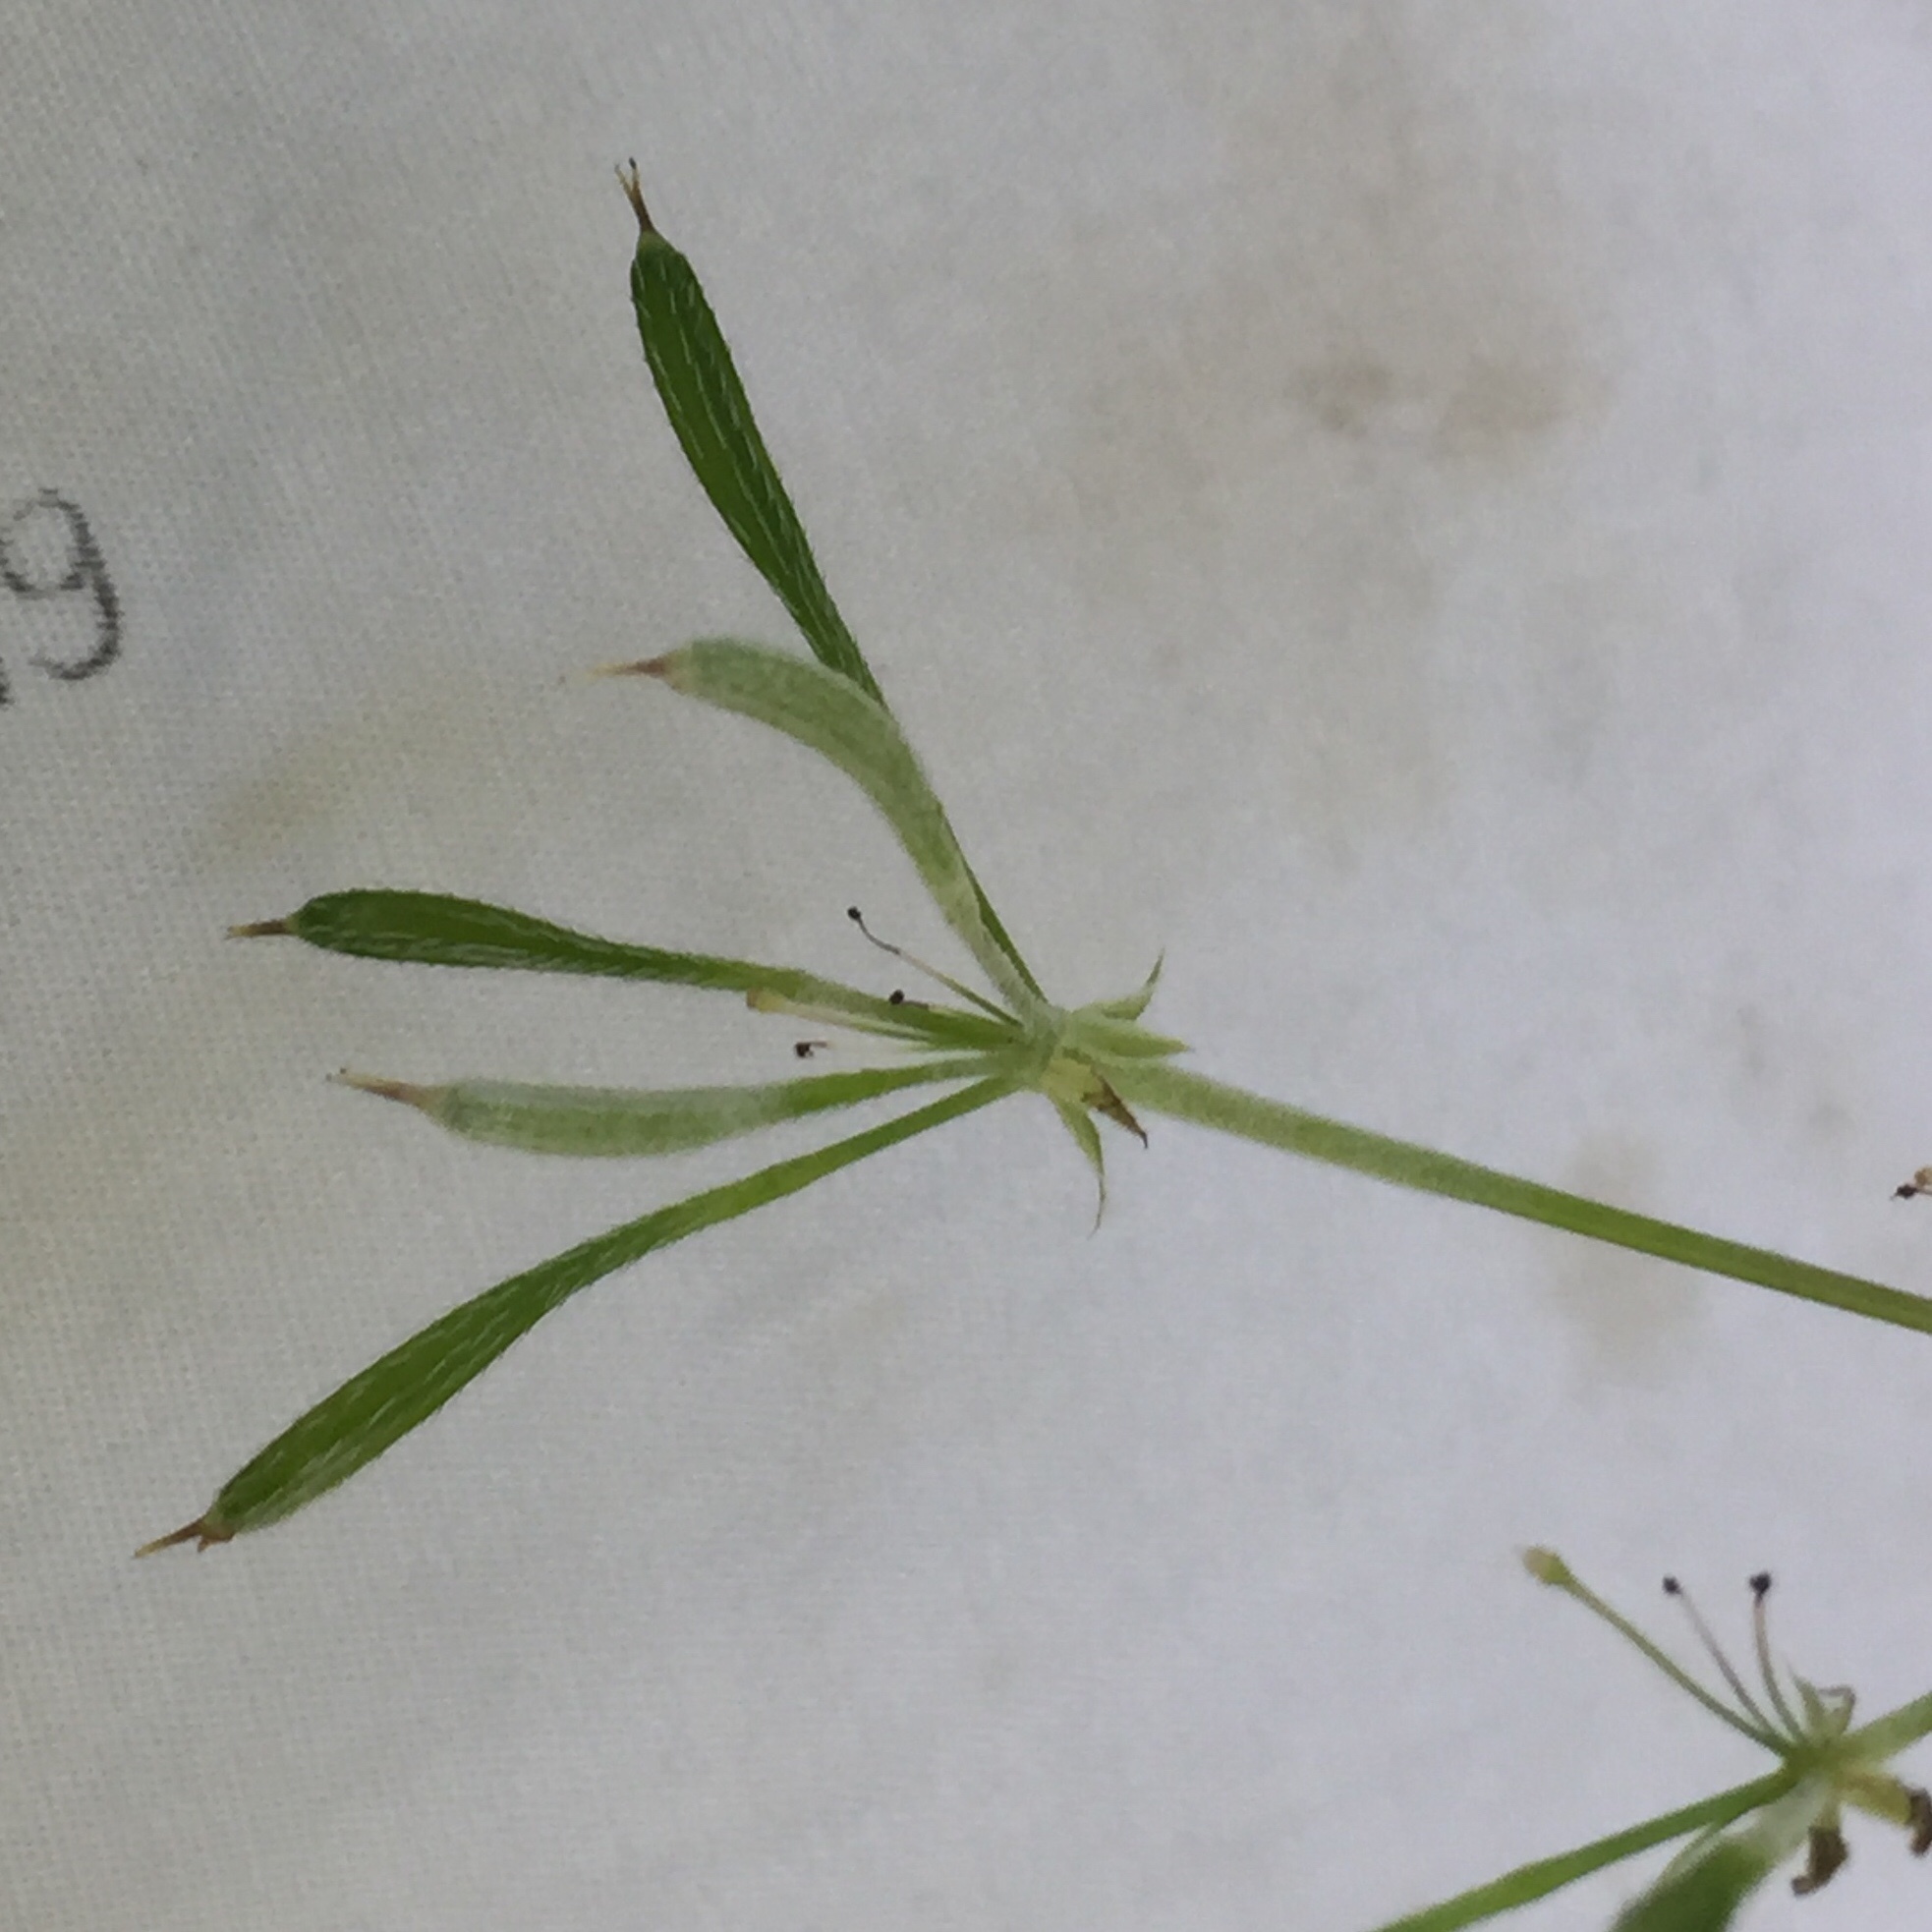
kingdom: Plantae
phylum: Tracheophyta
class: Magnoliopsida
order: Apiales
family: Apiaceae
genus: Osmorhiza
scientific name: Osmorhiza longistylis
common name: Smooth sweet cicely
